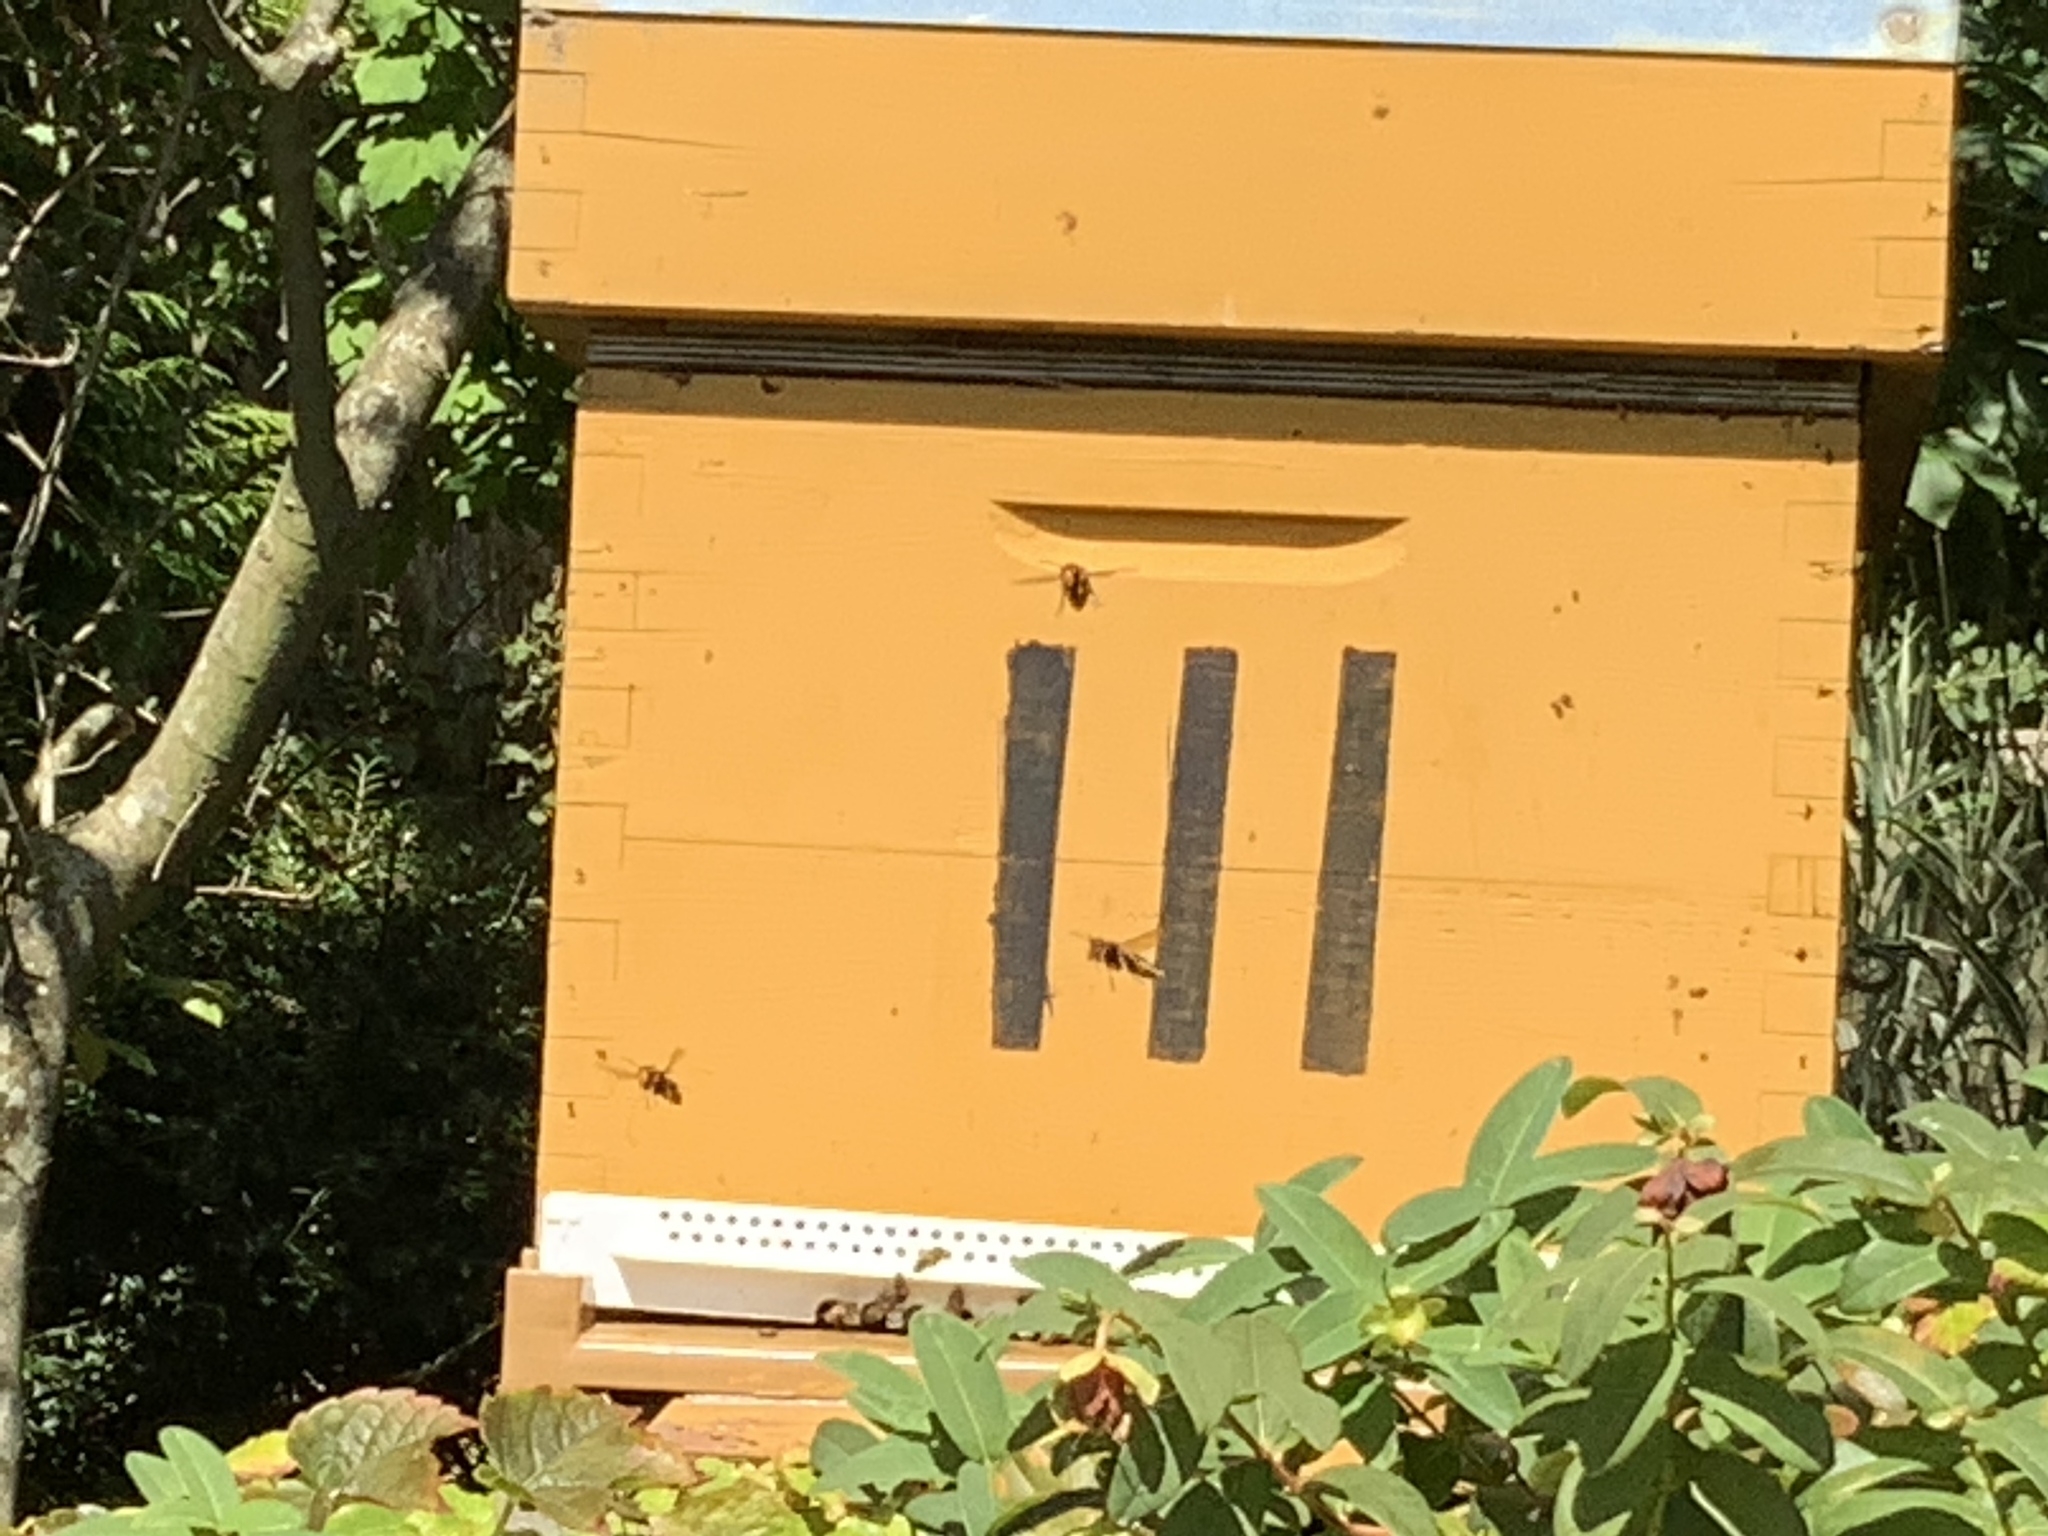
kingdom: Animalia
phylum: Arthropoda
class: Insecta
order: Hymenoptera
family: Vespidae
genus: Vespa
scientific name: Vespa velutina
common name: Asian hornet
